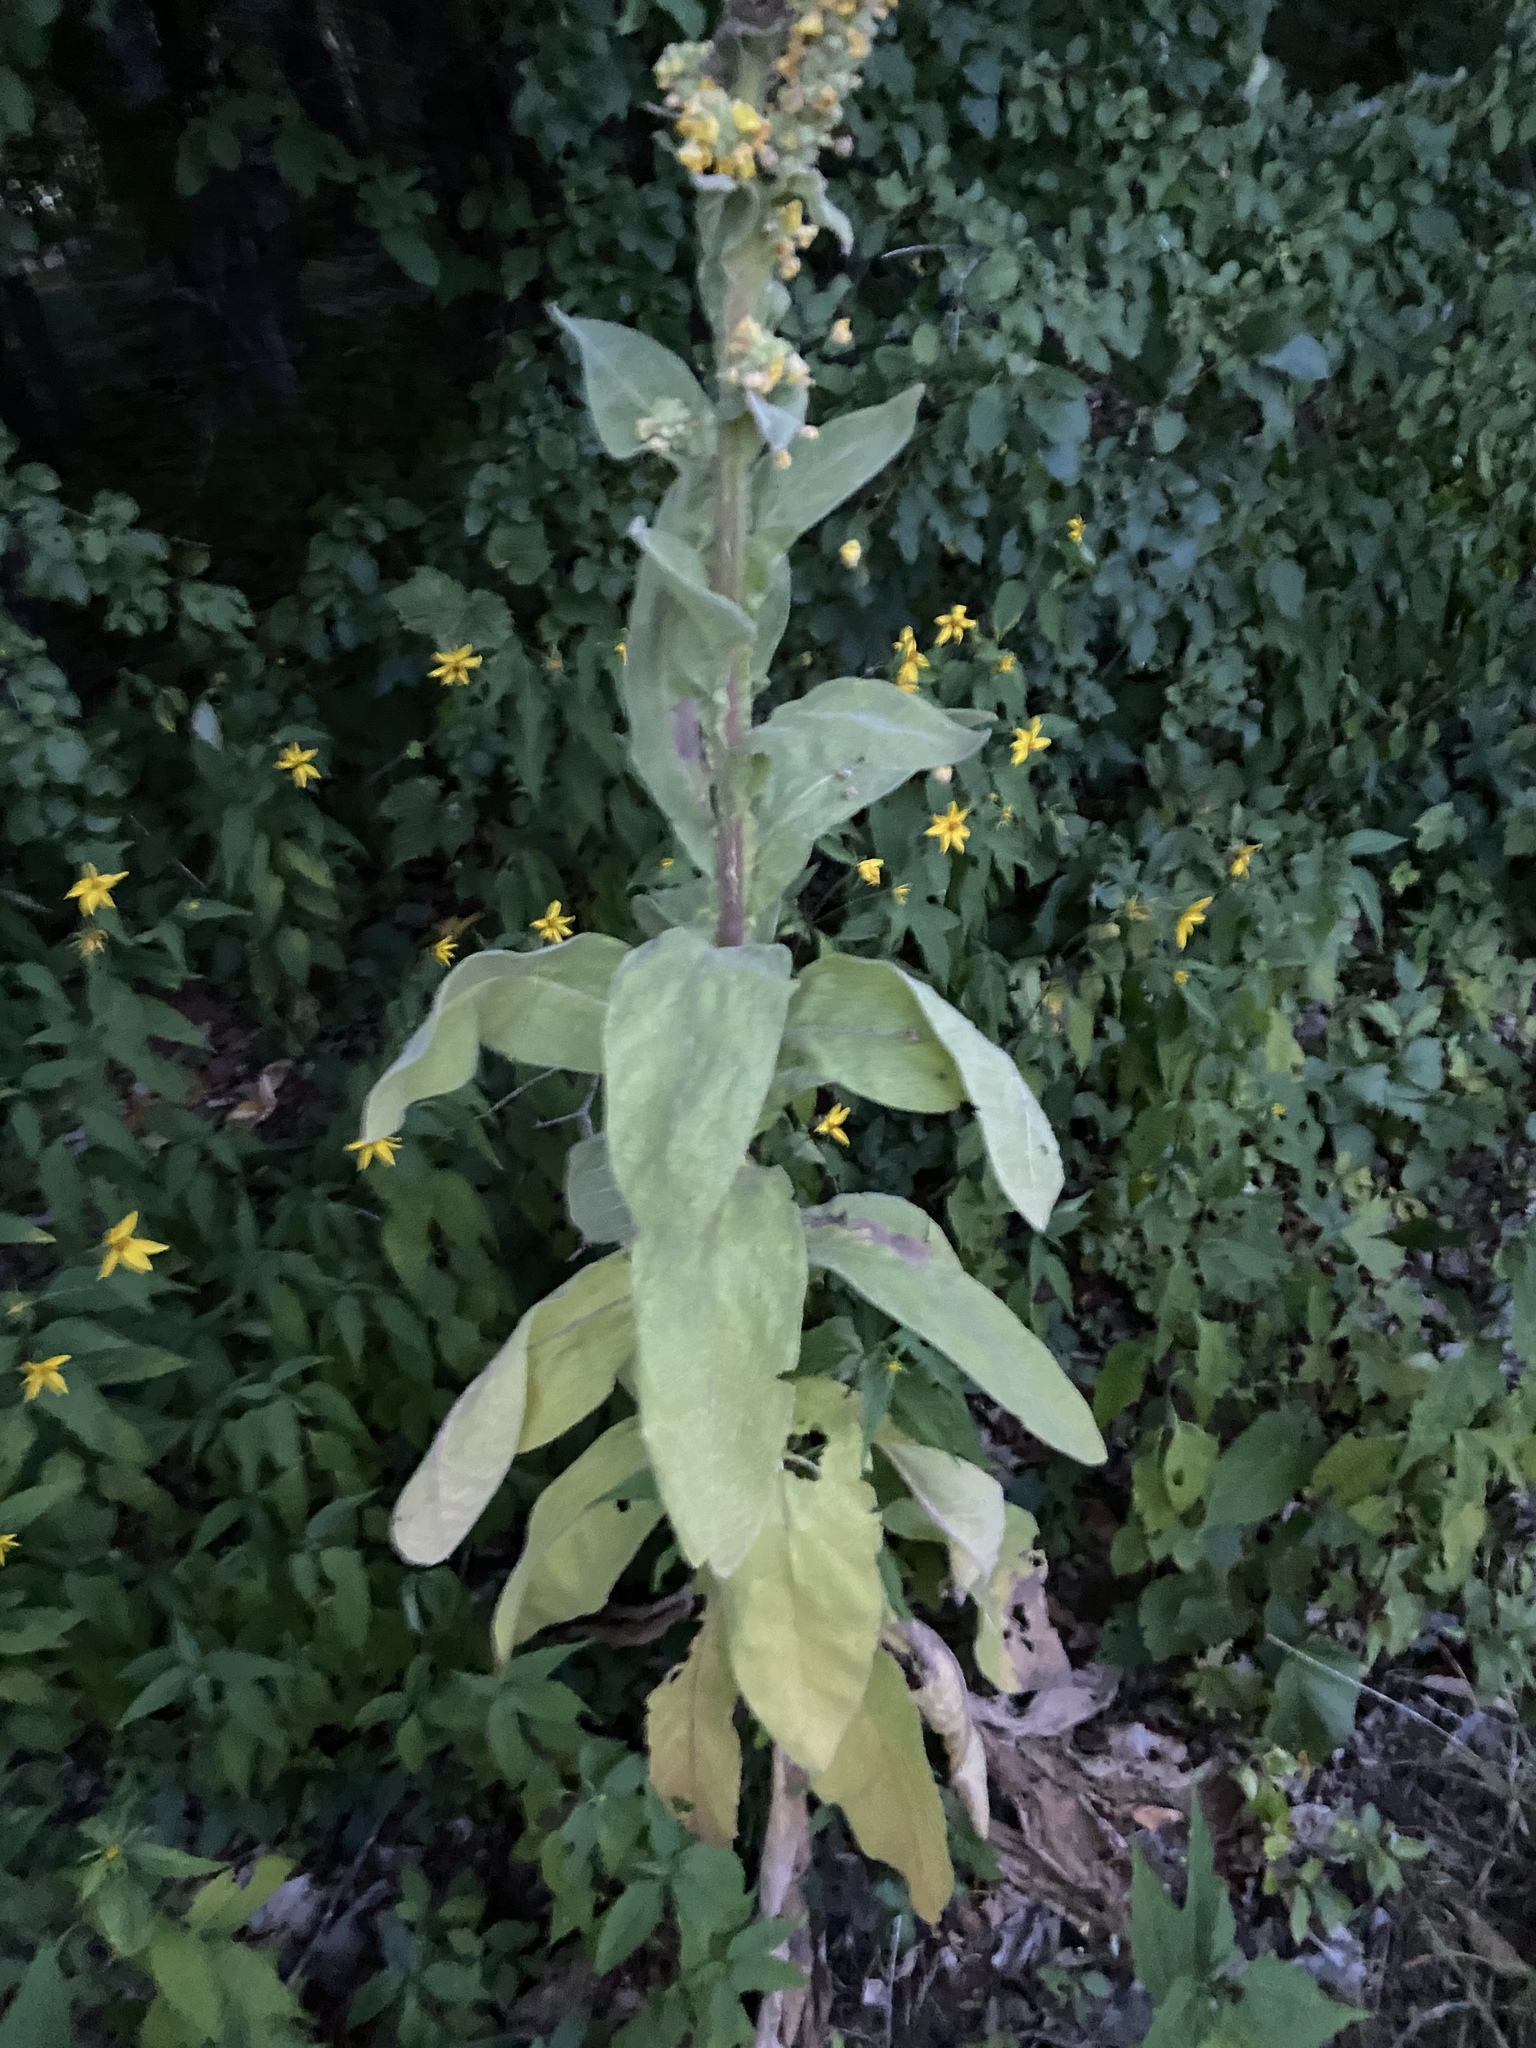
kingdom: Plantae
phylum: Tracheophyta
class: Magnoliopsida
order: Lamiales
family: Scrophulariaceae
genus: Verbascum
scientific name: Verbascum thapsus
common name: Common mullein
